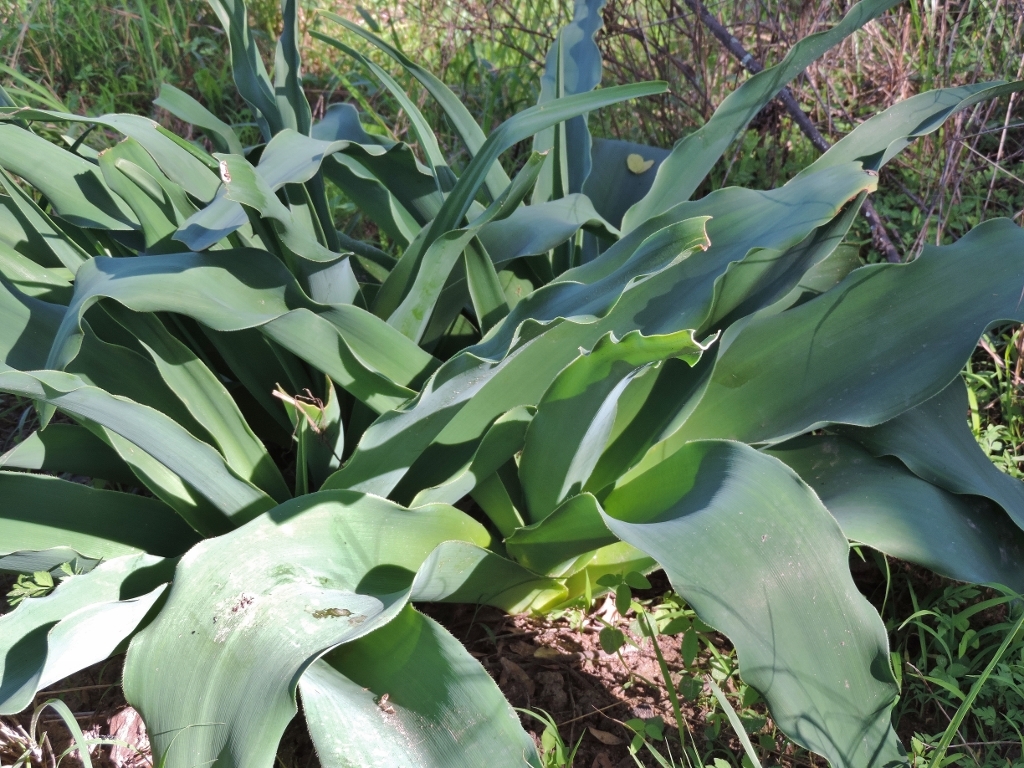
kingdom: Plantae
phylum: Tracheophyta
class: Liliopsida
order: Asparagales
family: Amaryllidaceae
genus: Crinum
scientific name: Crinum crassicaule
